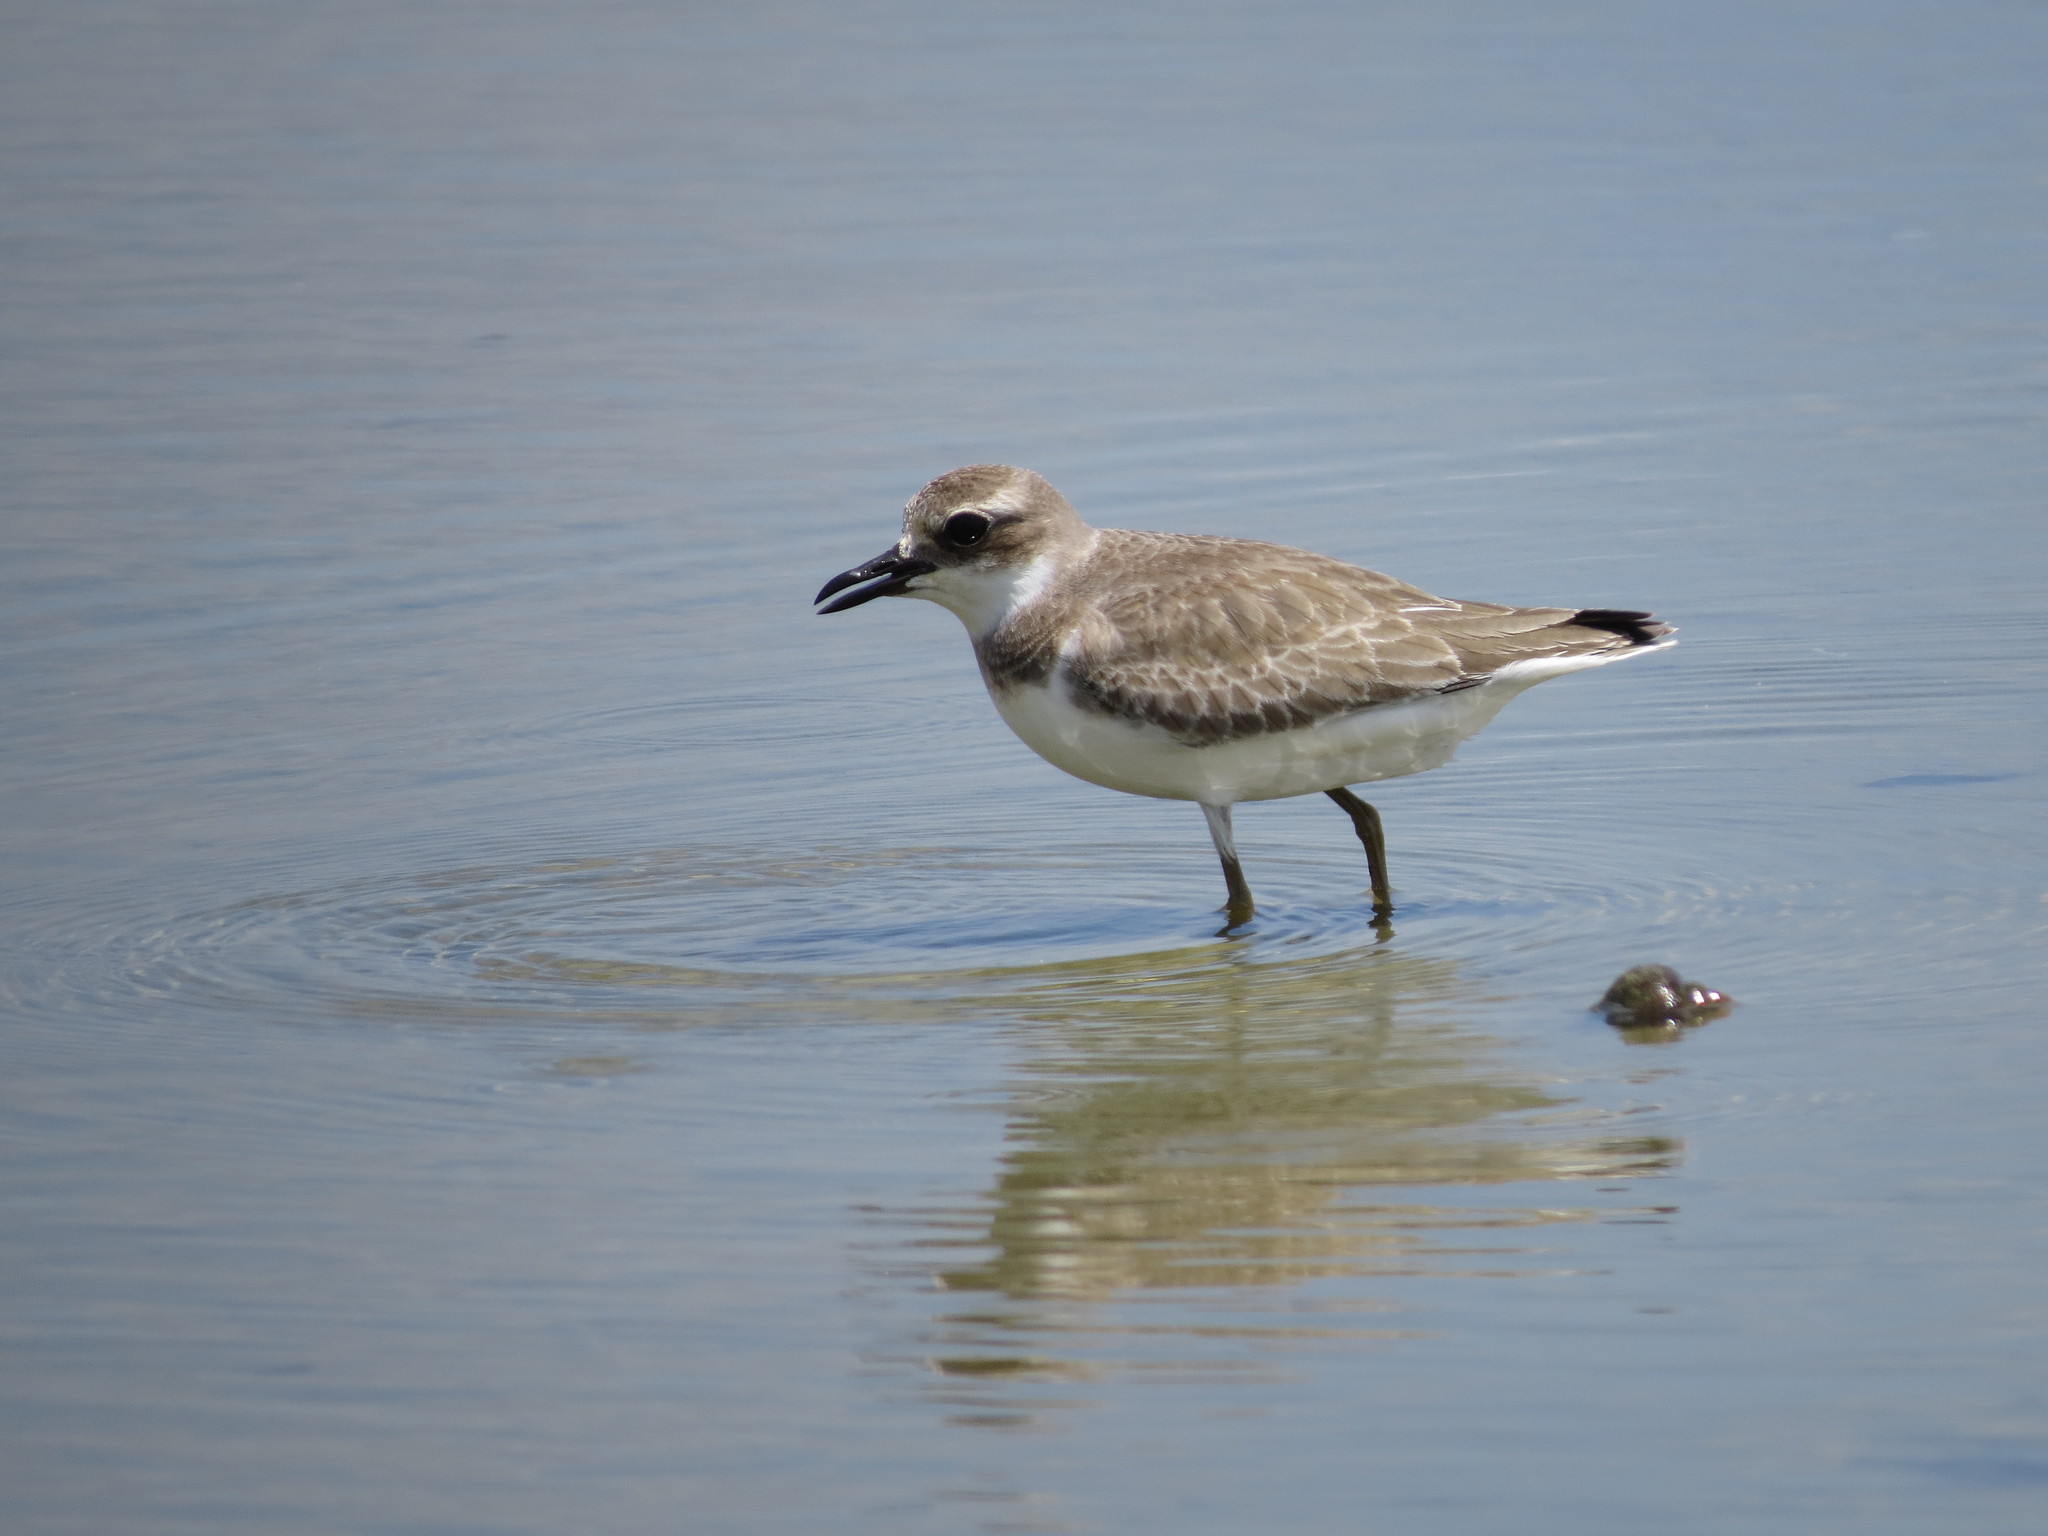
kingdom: Animalia
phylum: Chordata
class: Aves
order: Charadriiformes
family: Charadriidae
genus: Charadrius
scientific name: Charadrius leschenaultii
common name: Greater sand plover
